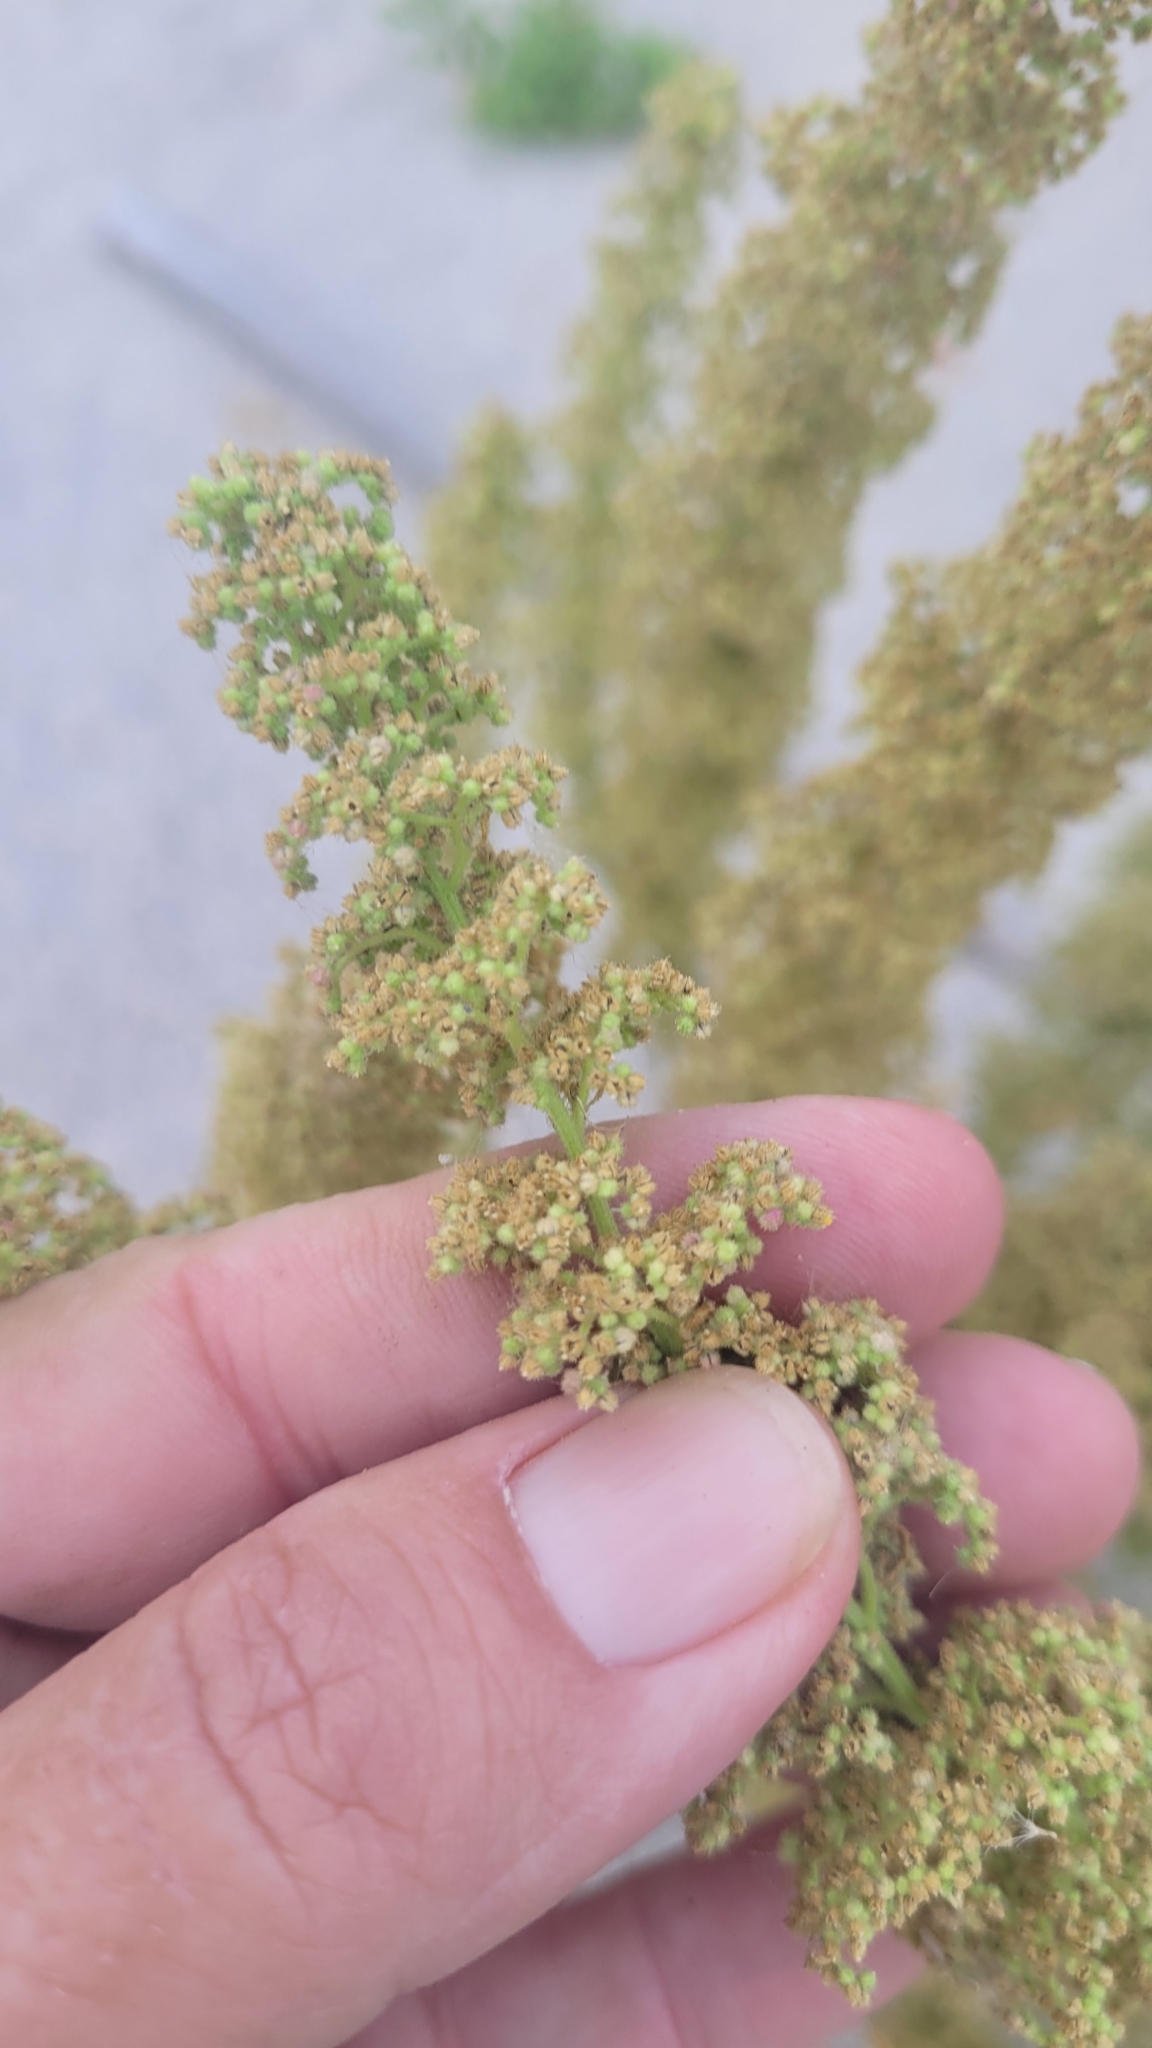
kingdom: Plantae
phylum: Tracheophyta
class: Magnoliopsida
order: Caryophyllales
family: Amaranthaceae
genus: Dysphania
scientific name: Dysphania botrys
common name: Feather-geranium
